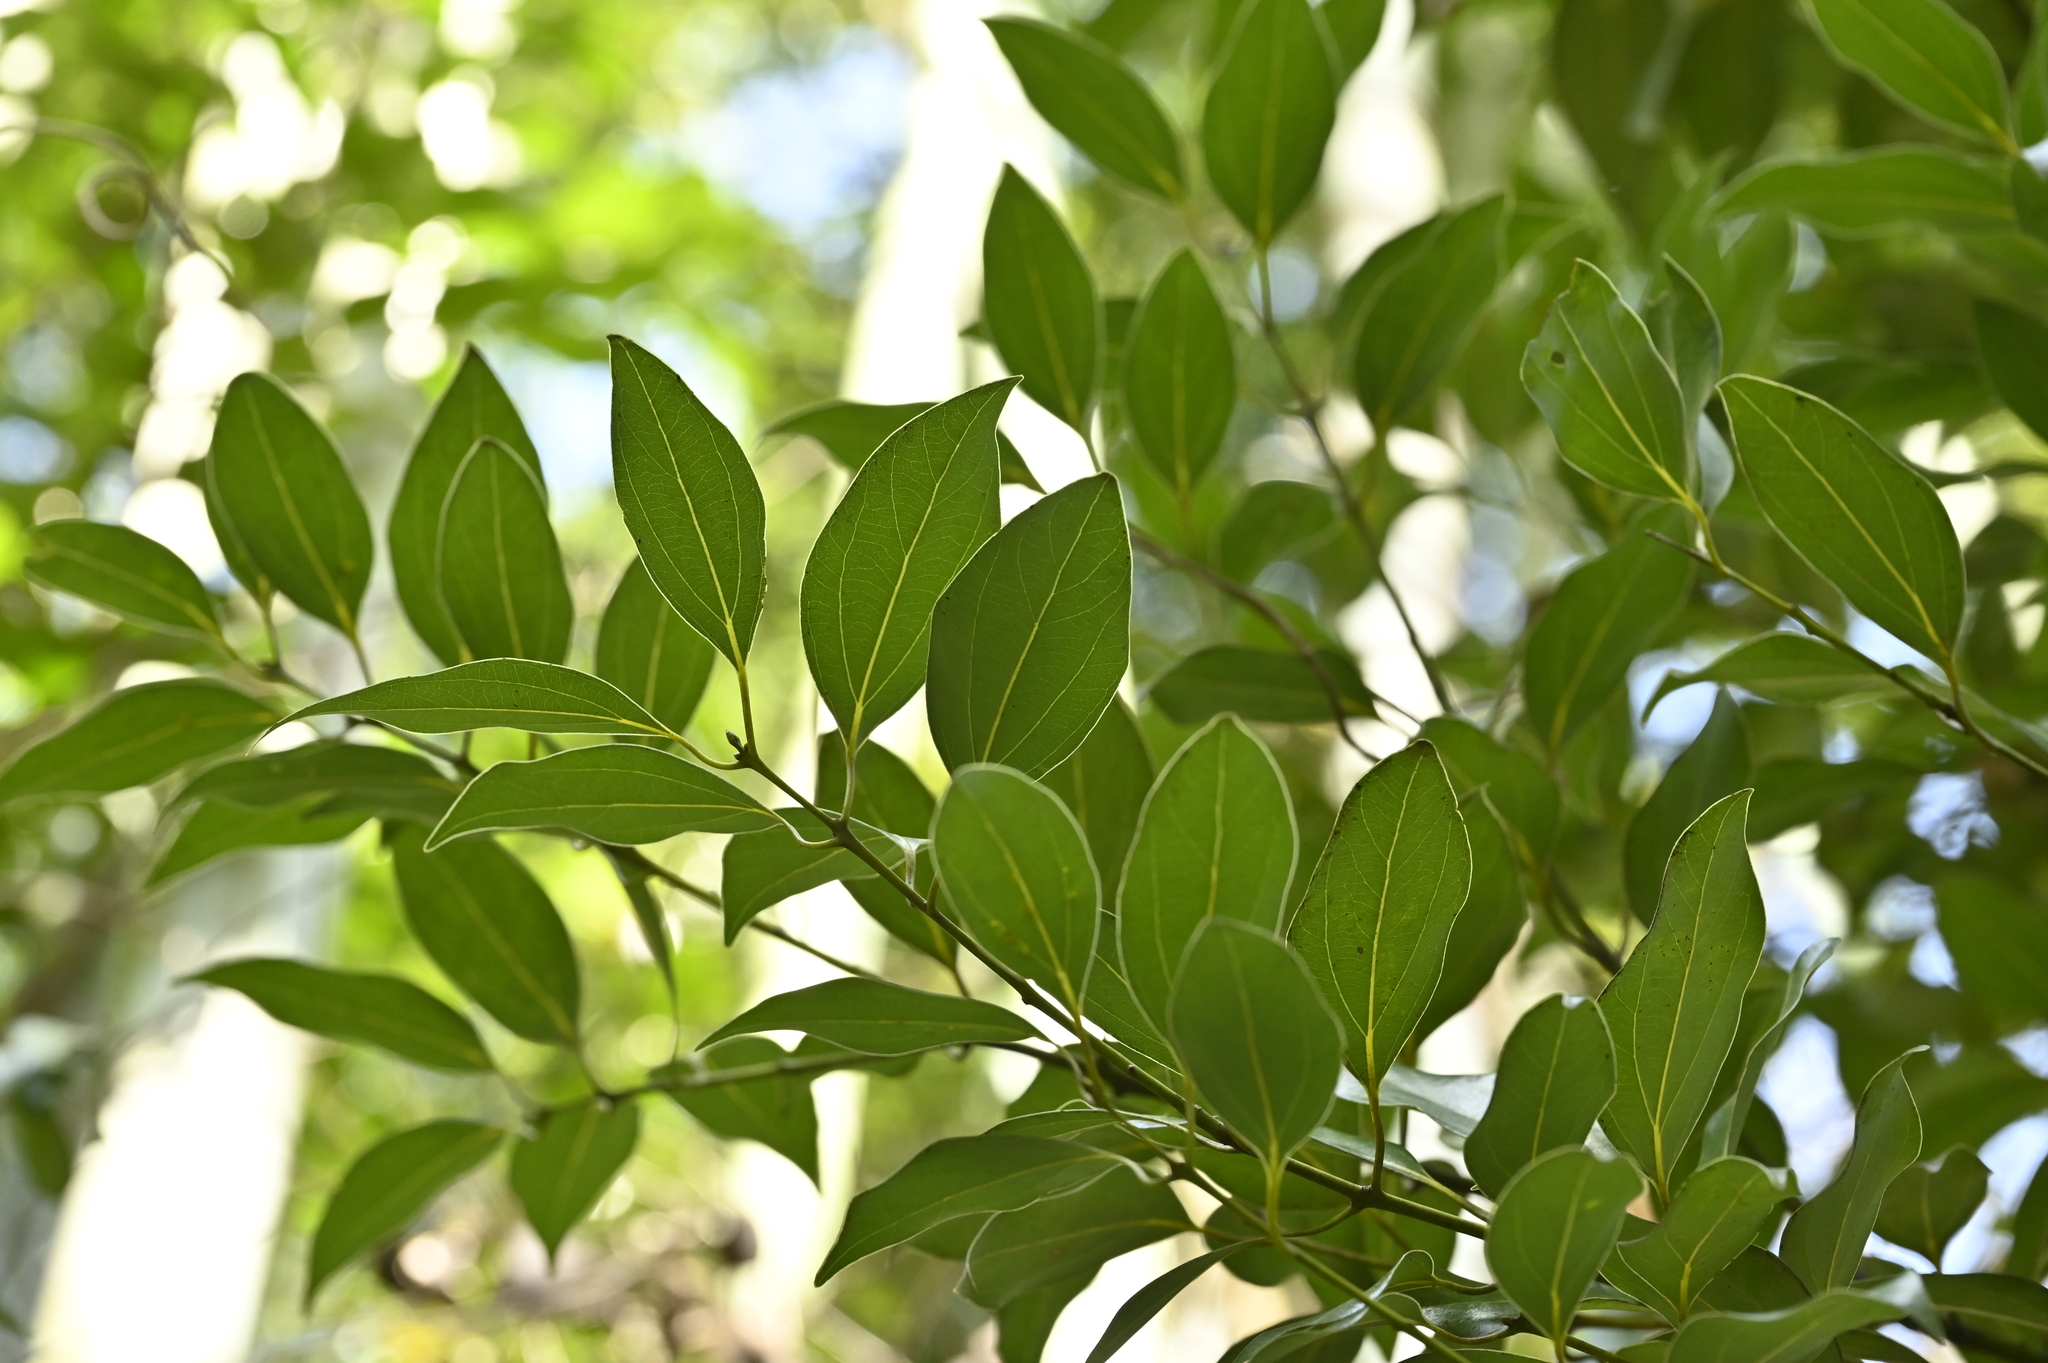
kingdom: Plantae
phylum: Tracheophyta
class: Magnoliopsida
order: Laurales
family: Lauraceae
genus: Cinnamomum
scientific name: Cinnamomum chekiangense
